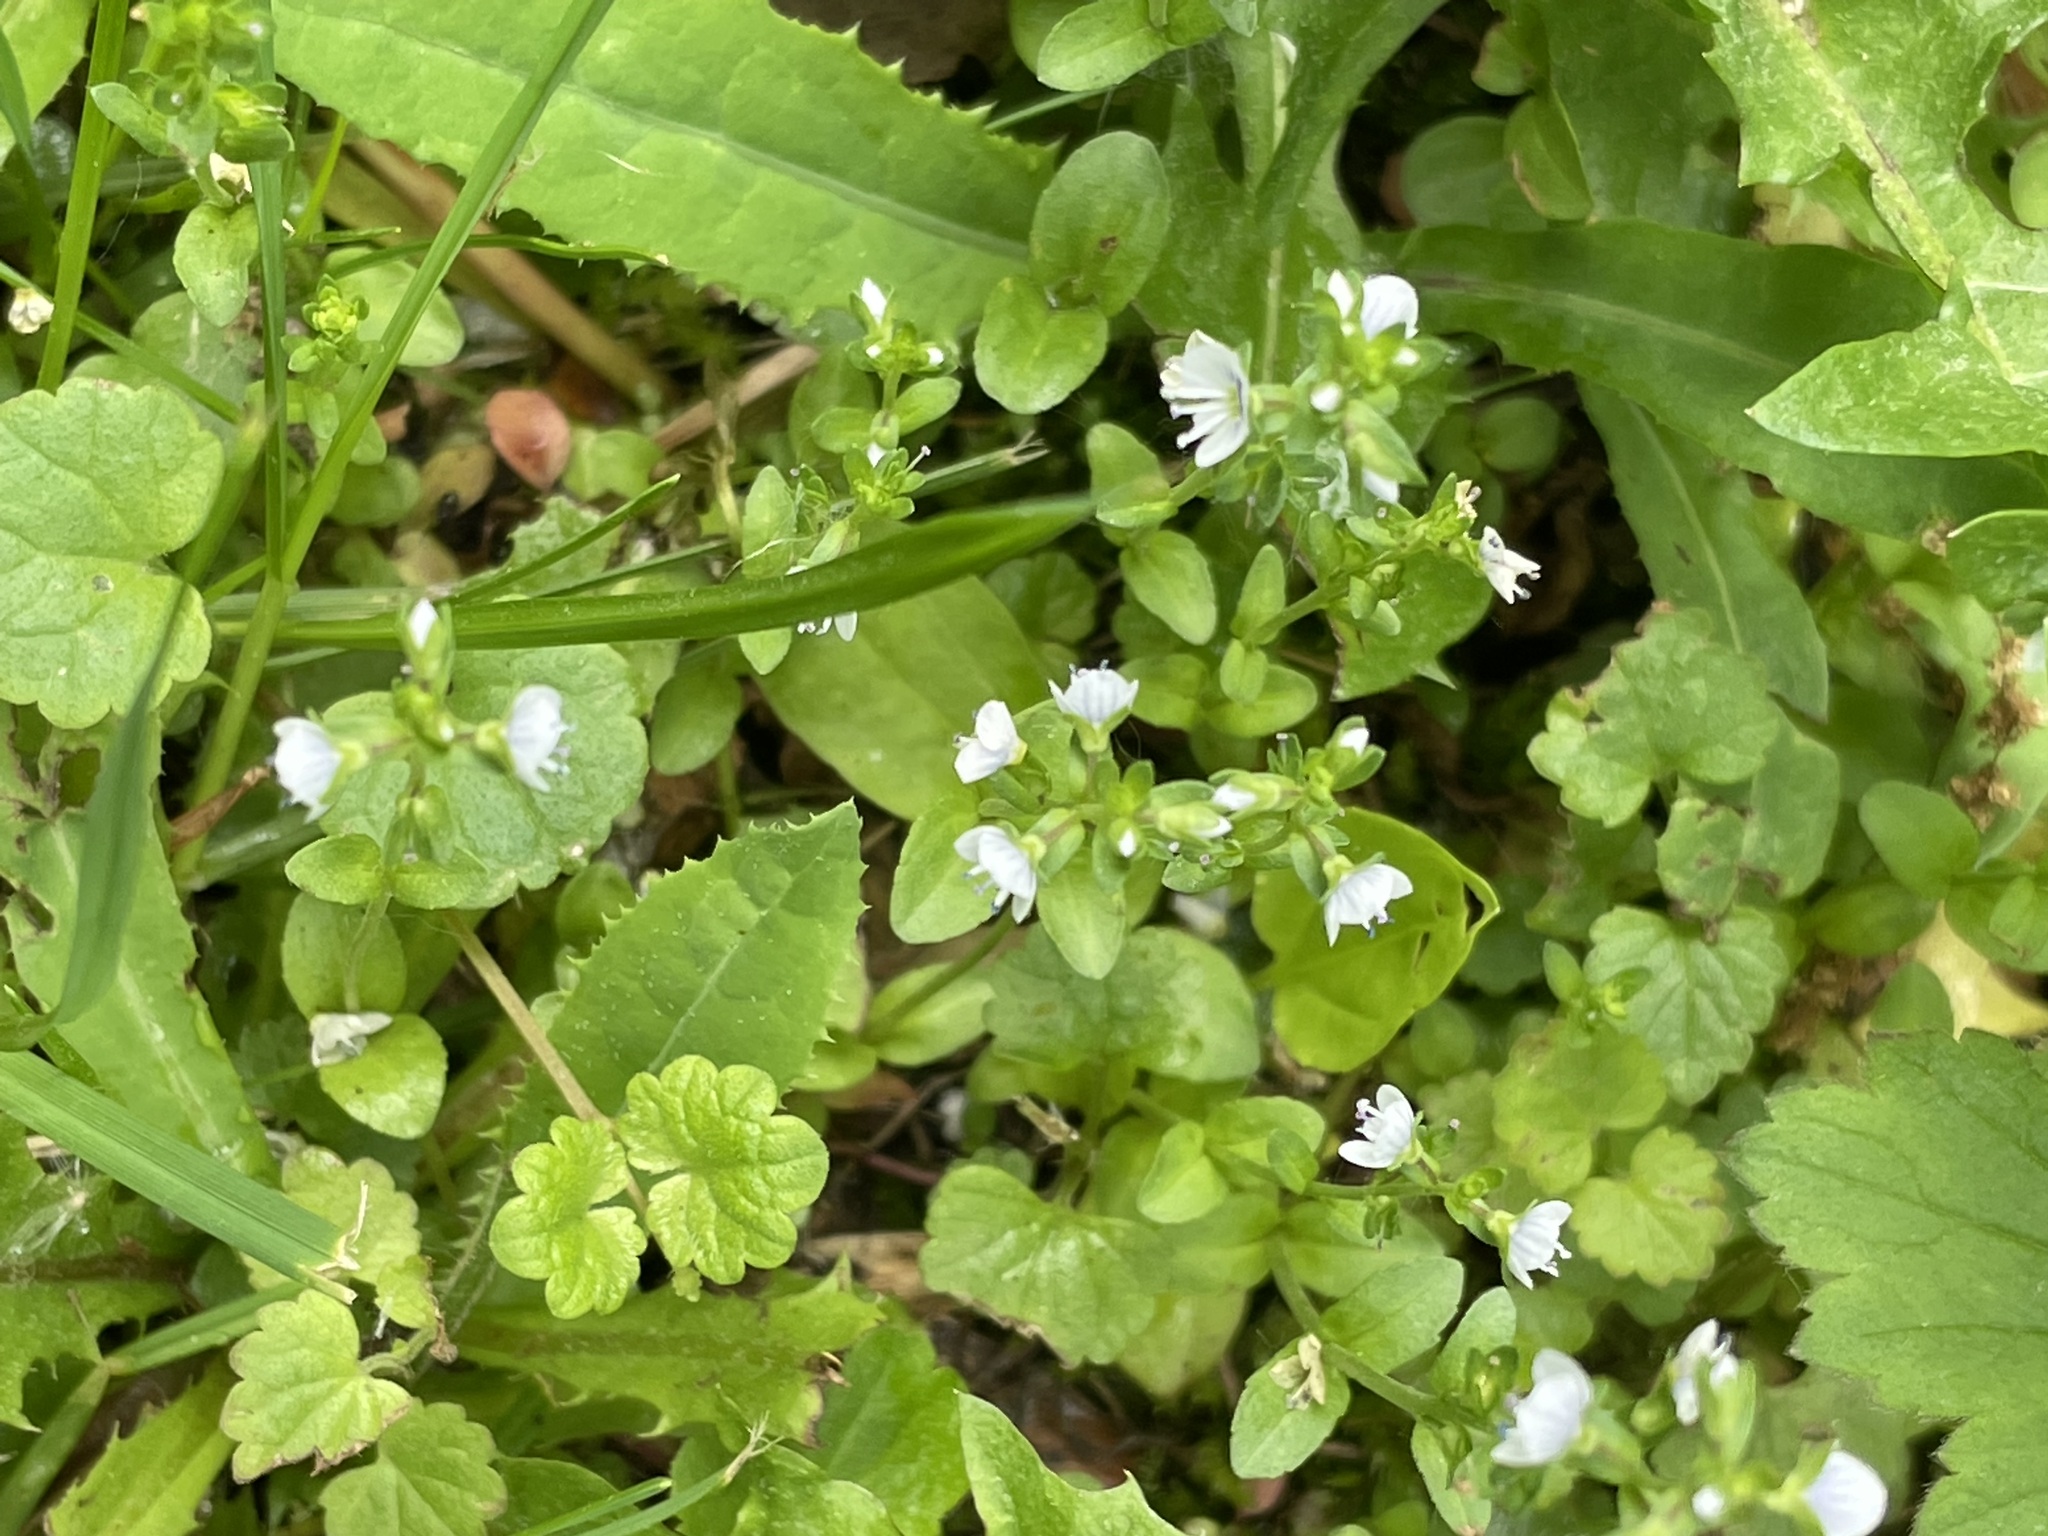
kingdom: Plantae
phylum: Tracheophyta
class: Magnoliopsida
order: Lamiales
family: Plantaginaceae
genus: Veronica
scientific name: Veronica serpyllifolia
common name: Thyme-leaved speedwell
